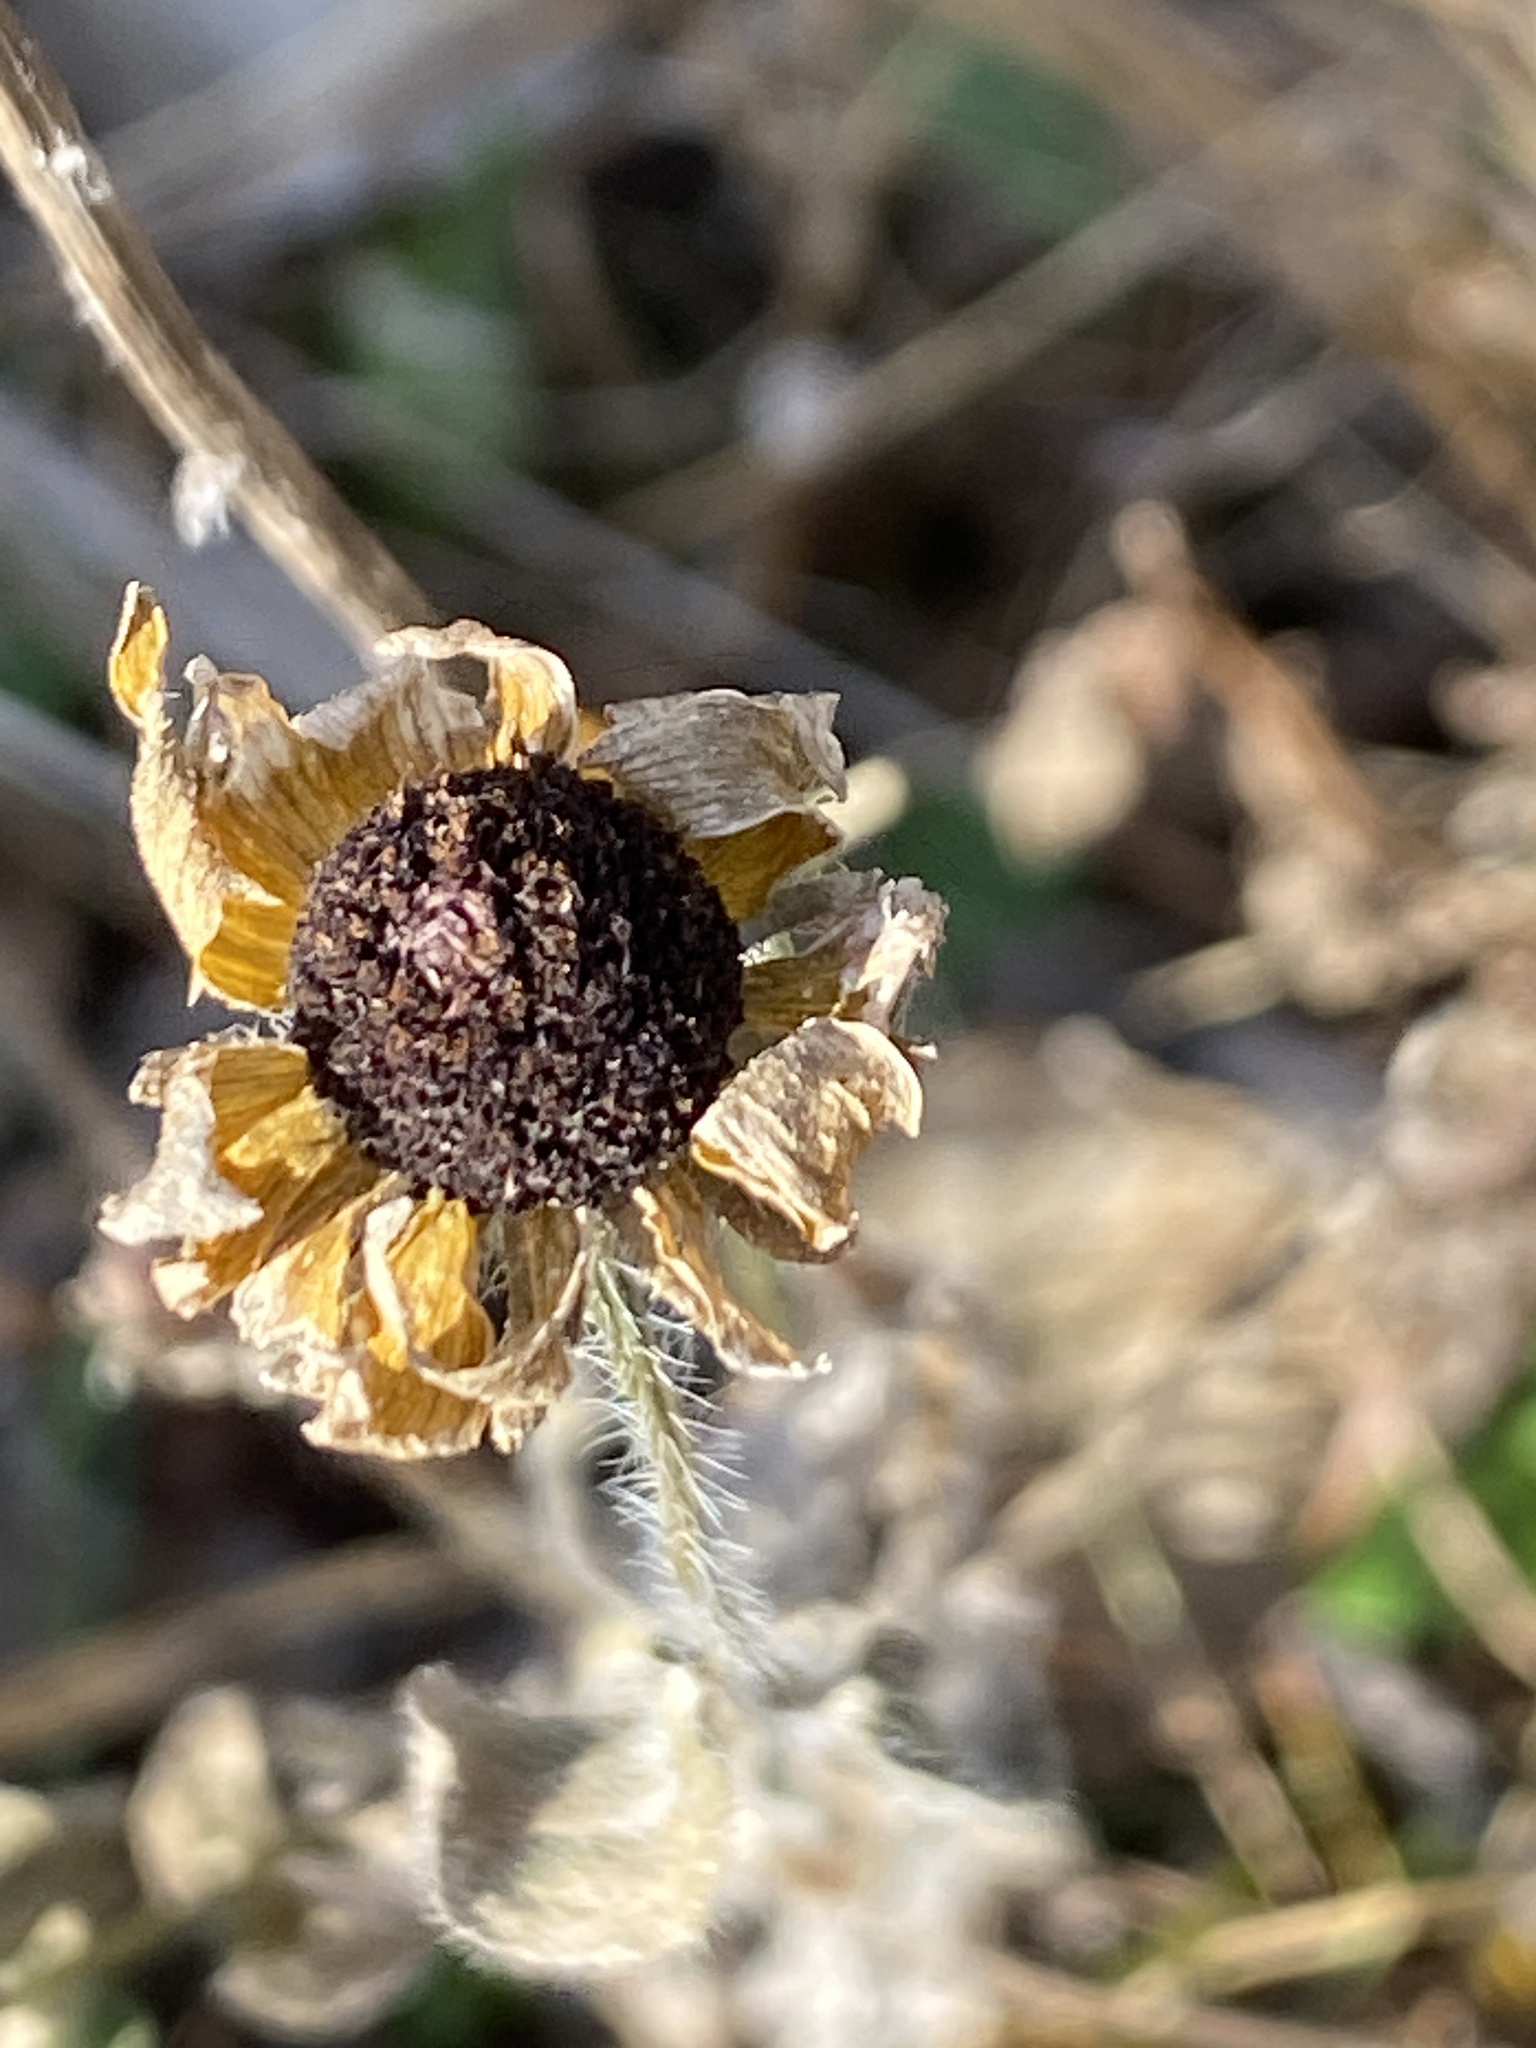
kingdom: Plantae
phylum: Tracheophyta
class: Magnoliopsida
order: Asterales
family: Asteraceae
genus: Rudbeckia
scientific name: Rudbeckia hirta
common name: Black-eyed-susan
